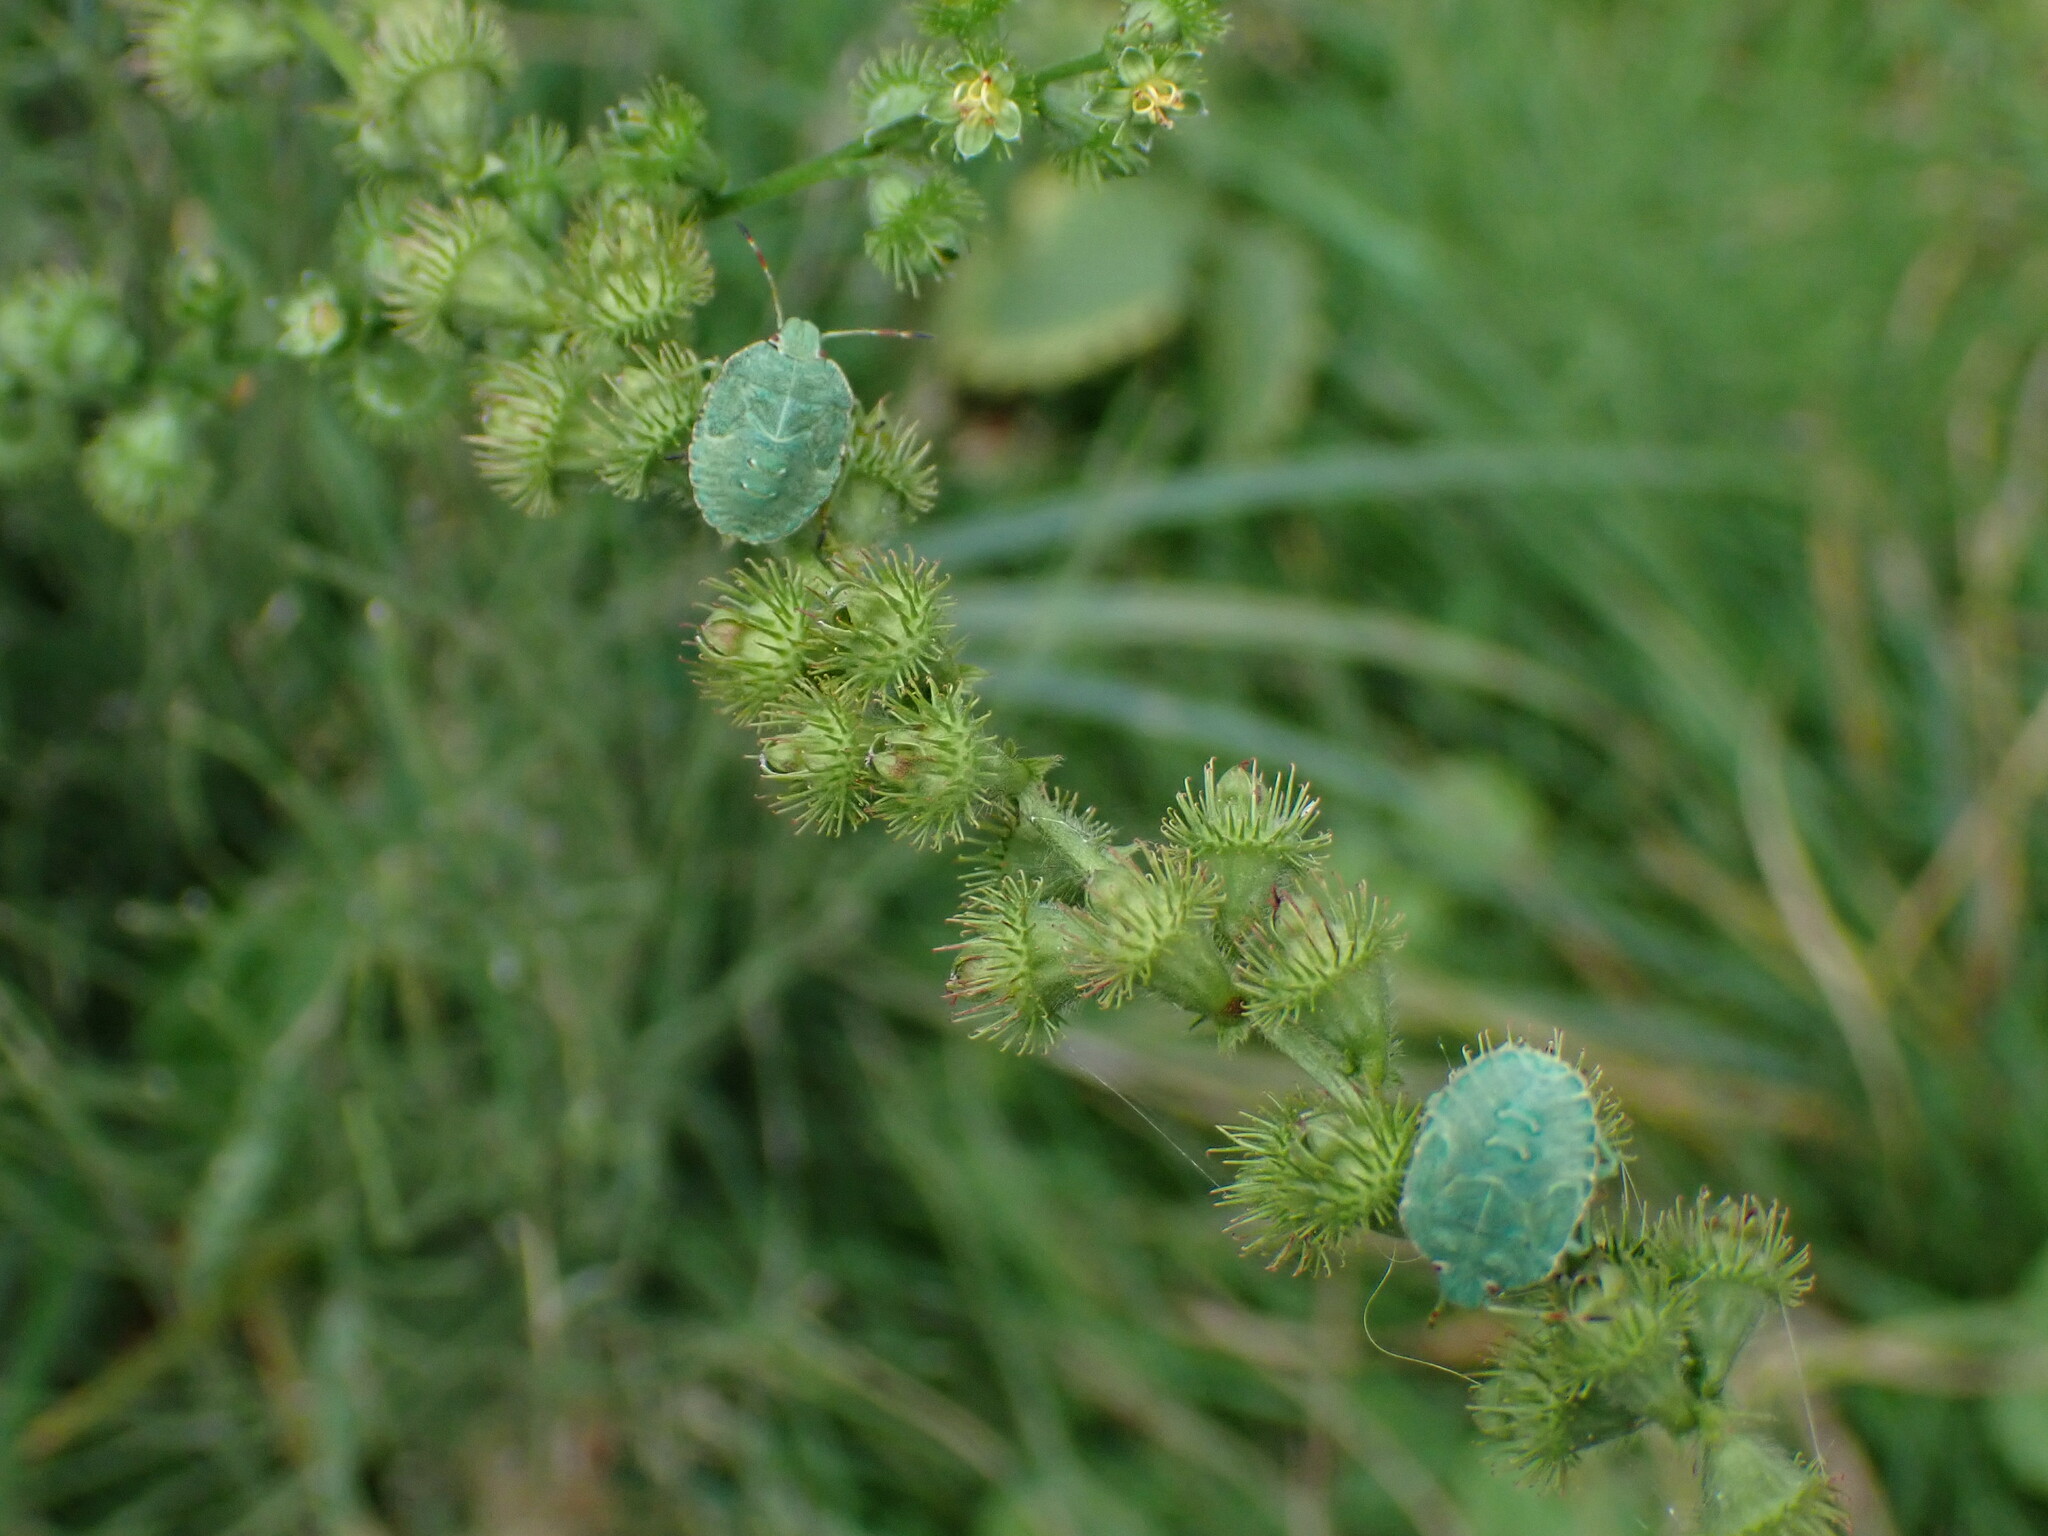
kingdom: Animalia
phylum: Arthropoda
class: Insecta
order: Hemiptera
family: Pentatomidae
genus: Palomena
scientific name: Palomena prasina
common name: Green shieldbug
